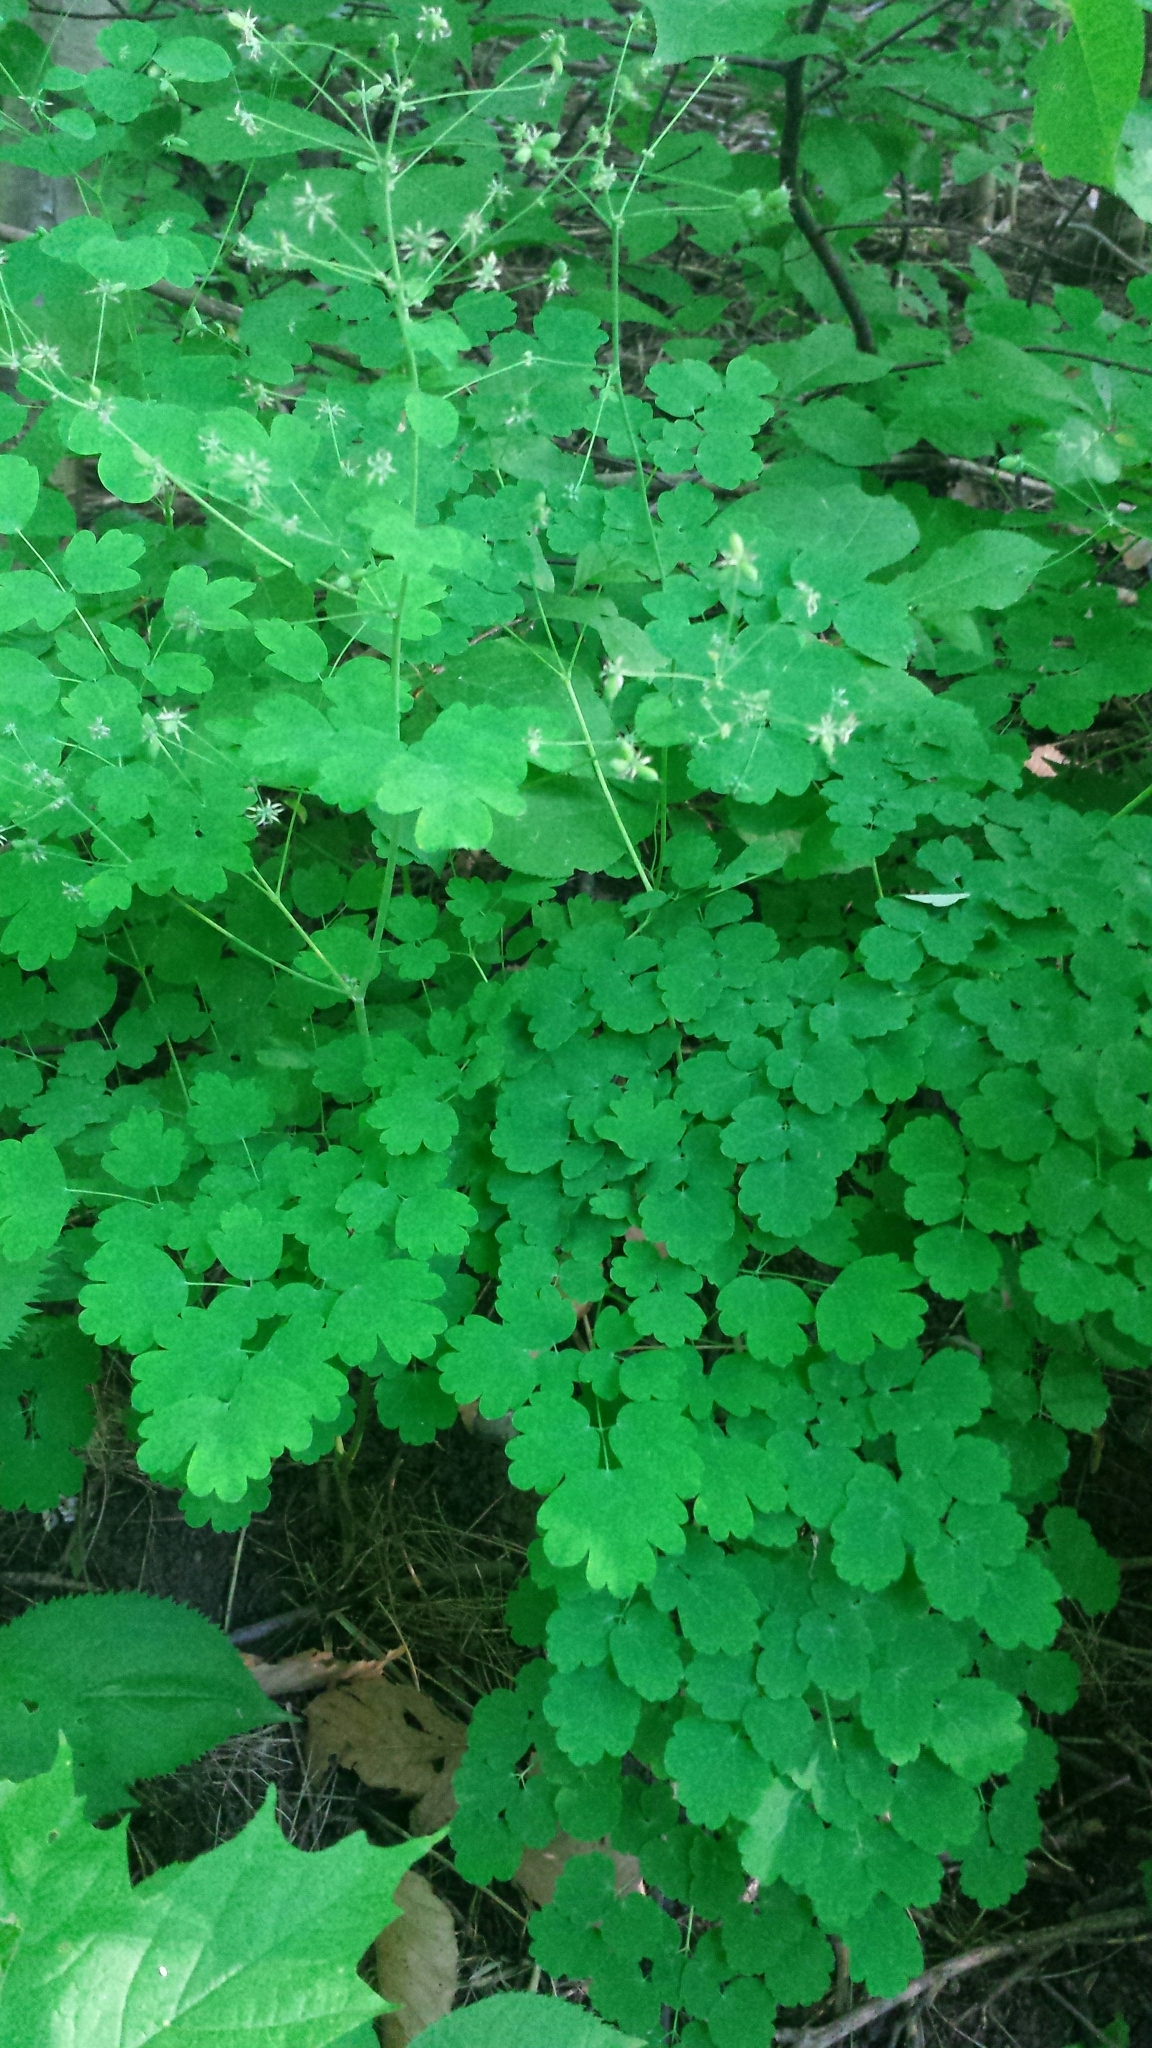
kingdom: Plantae
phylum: Tracheophyta
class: Magnoliopsida
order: Ranunculales
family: Ranunculaceae
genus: Thalictrum
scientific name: Thalictrum dioicum
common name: Early meadow-rue
